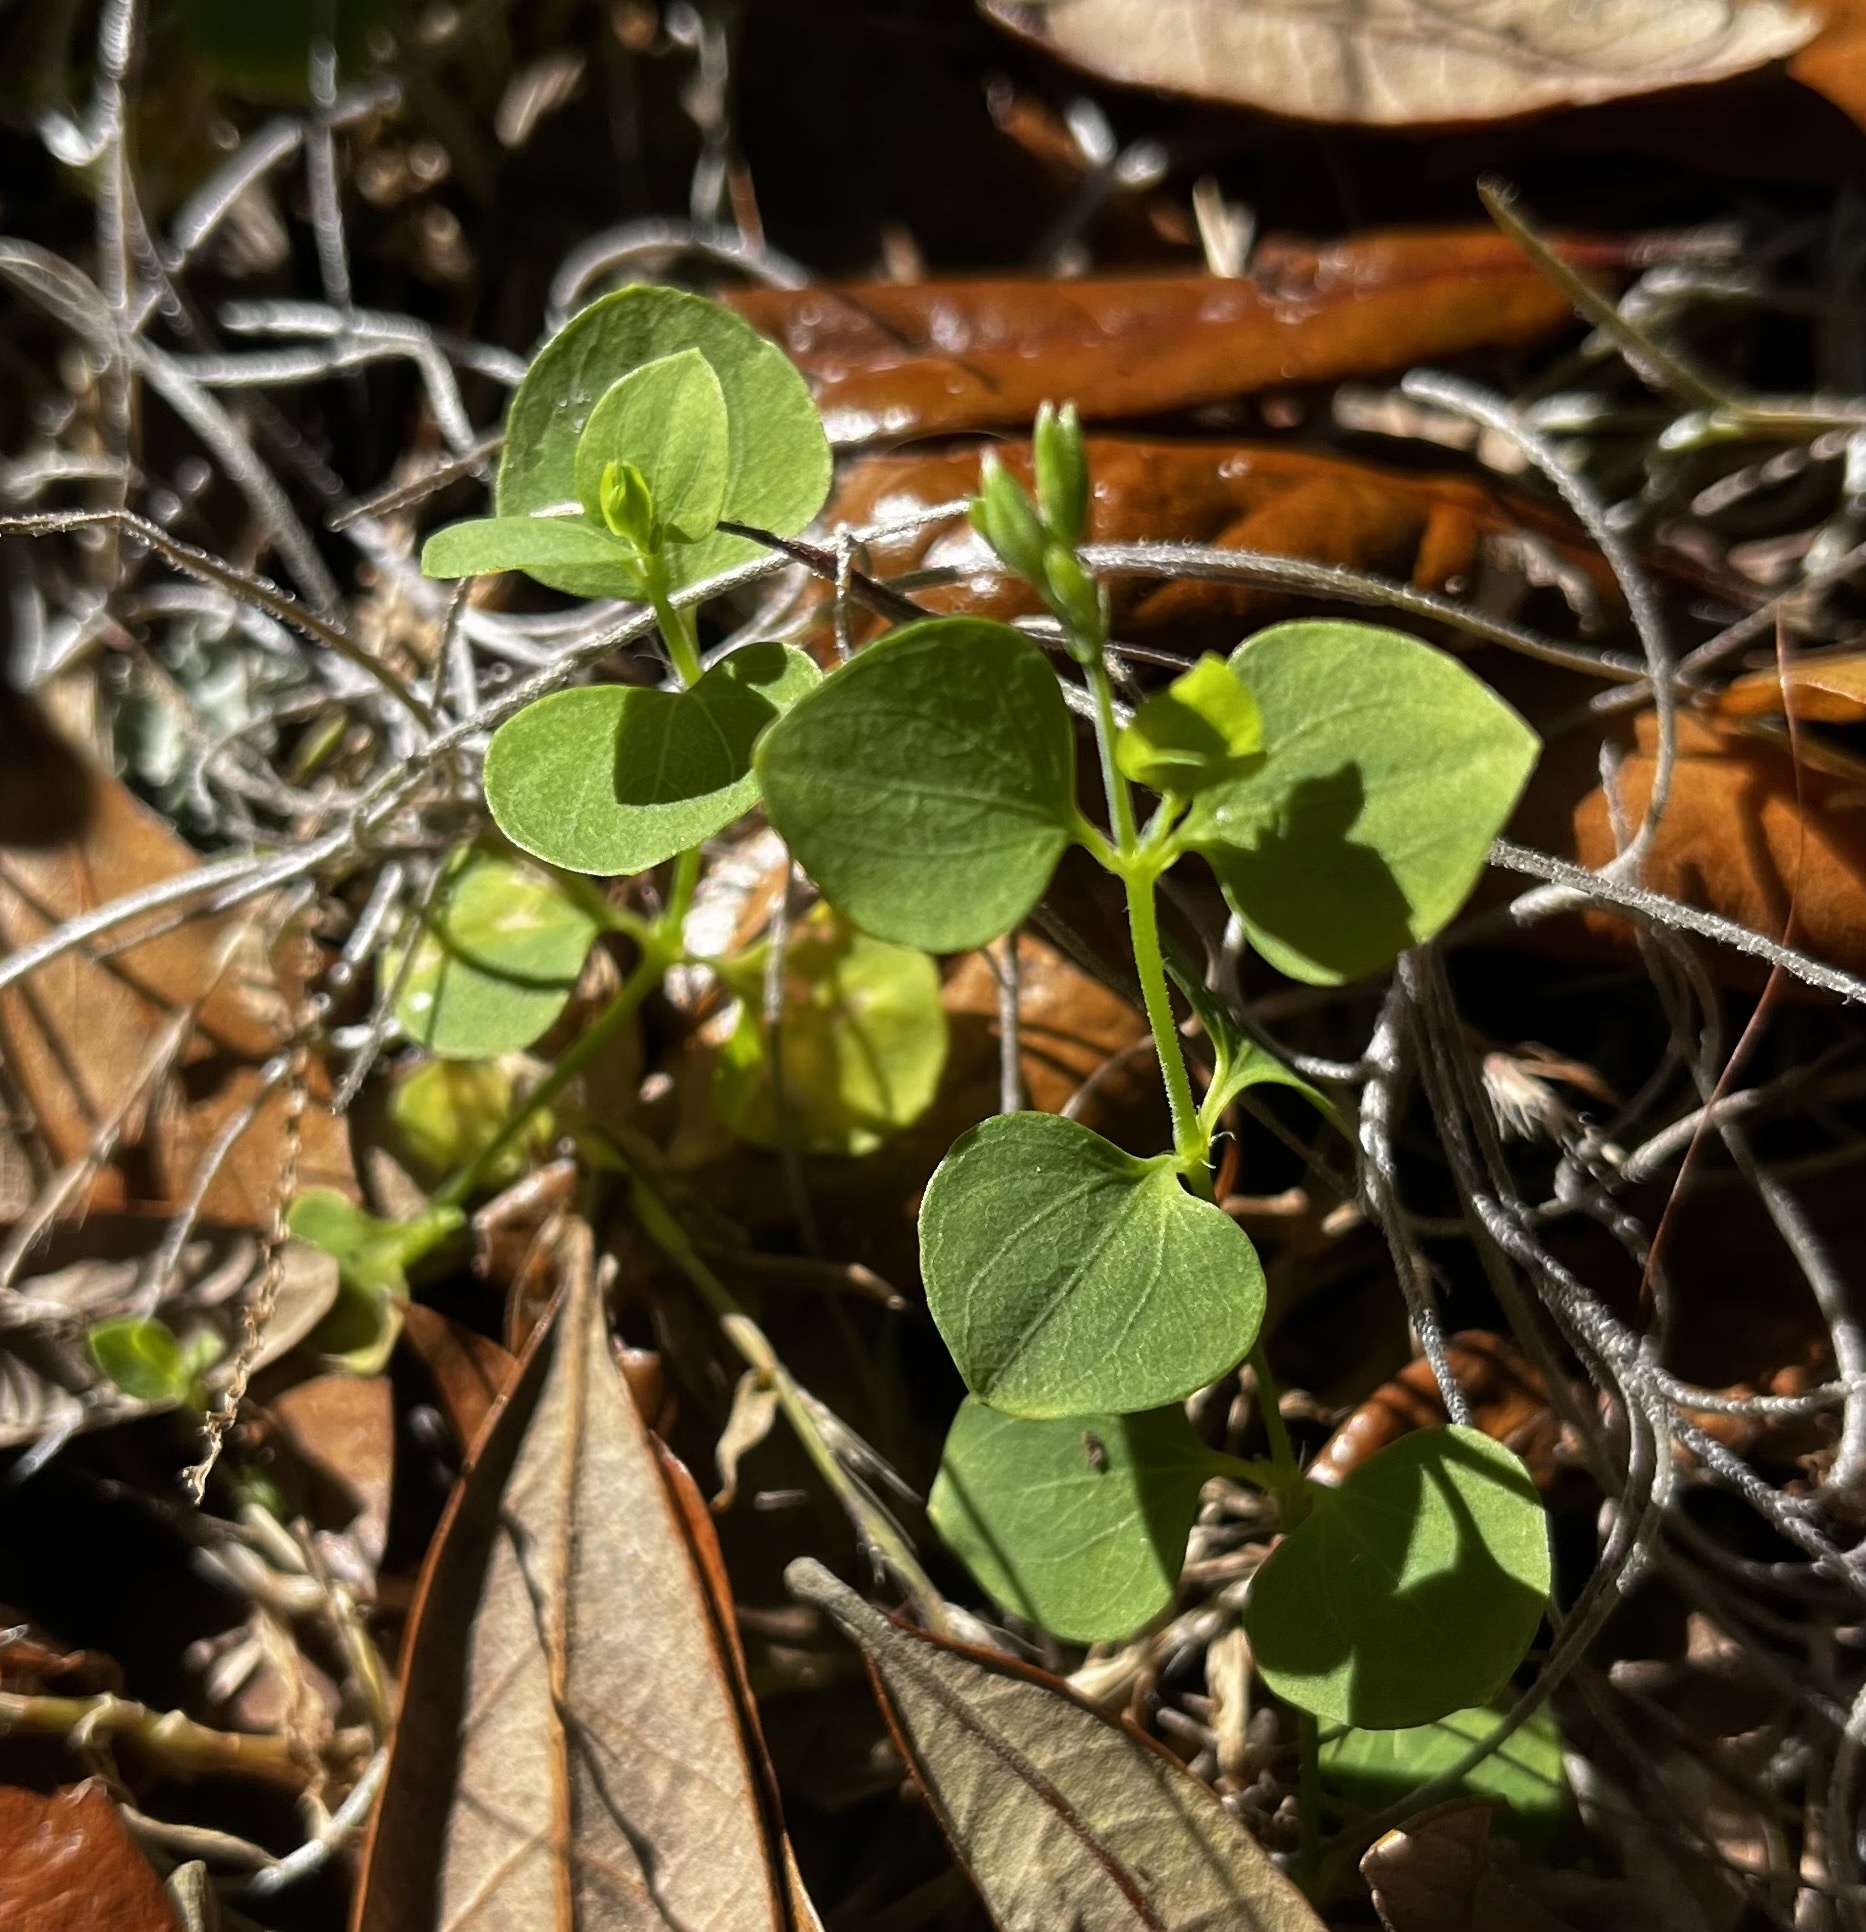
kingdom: Plantae
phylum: Tracheophyta
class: Magnoliopsida
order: Caryophyllales
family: Caryophyllaceae
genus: Drymaria
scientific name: Drymaria cordata
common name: Whitesnow
